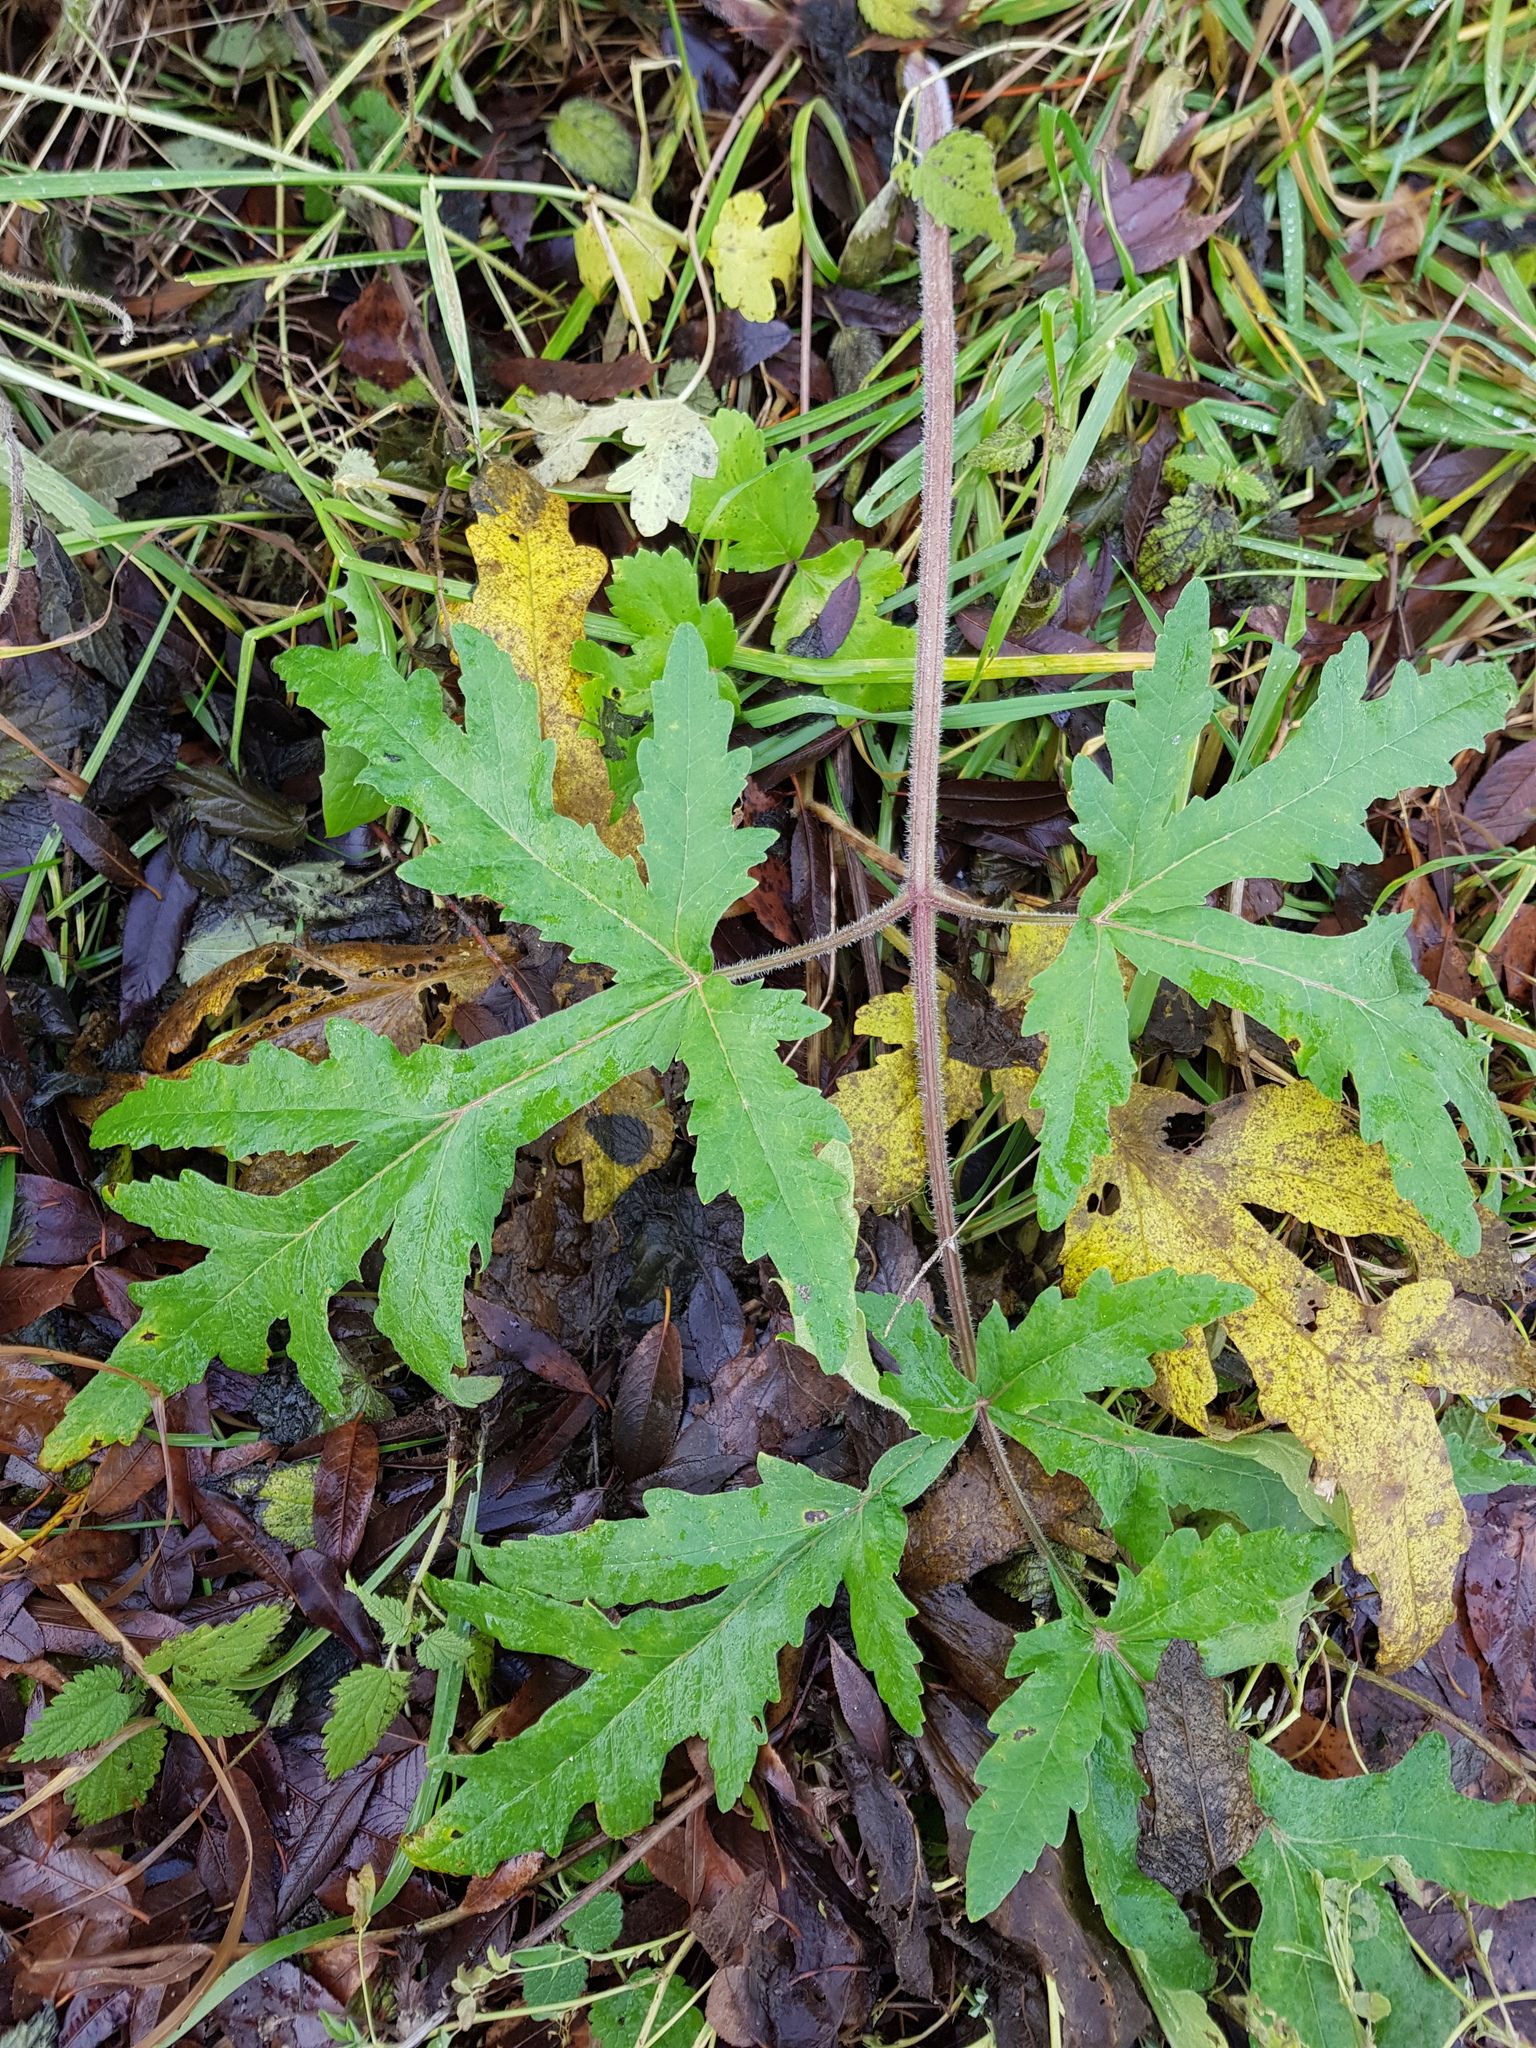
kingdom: Plantae
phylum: Tracheophyta
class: Magnoliopsida
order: Apiales
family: Apiaceae
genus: Heracleum
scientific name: Heracleum sphondylium
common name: Hogweed
